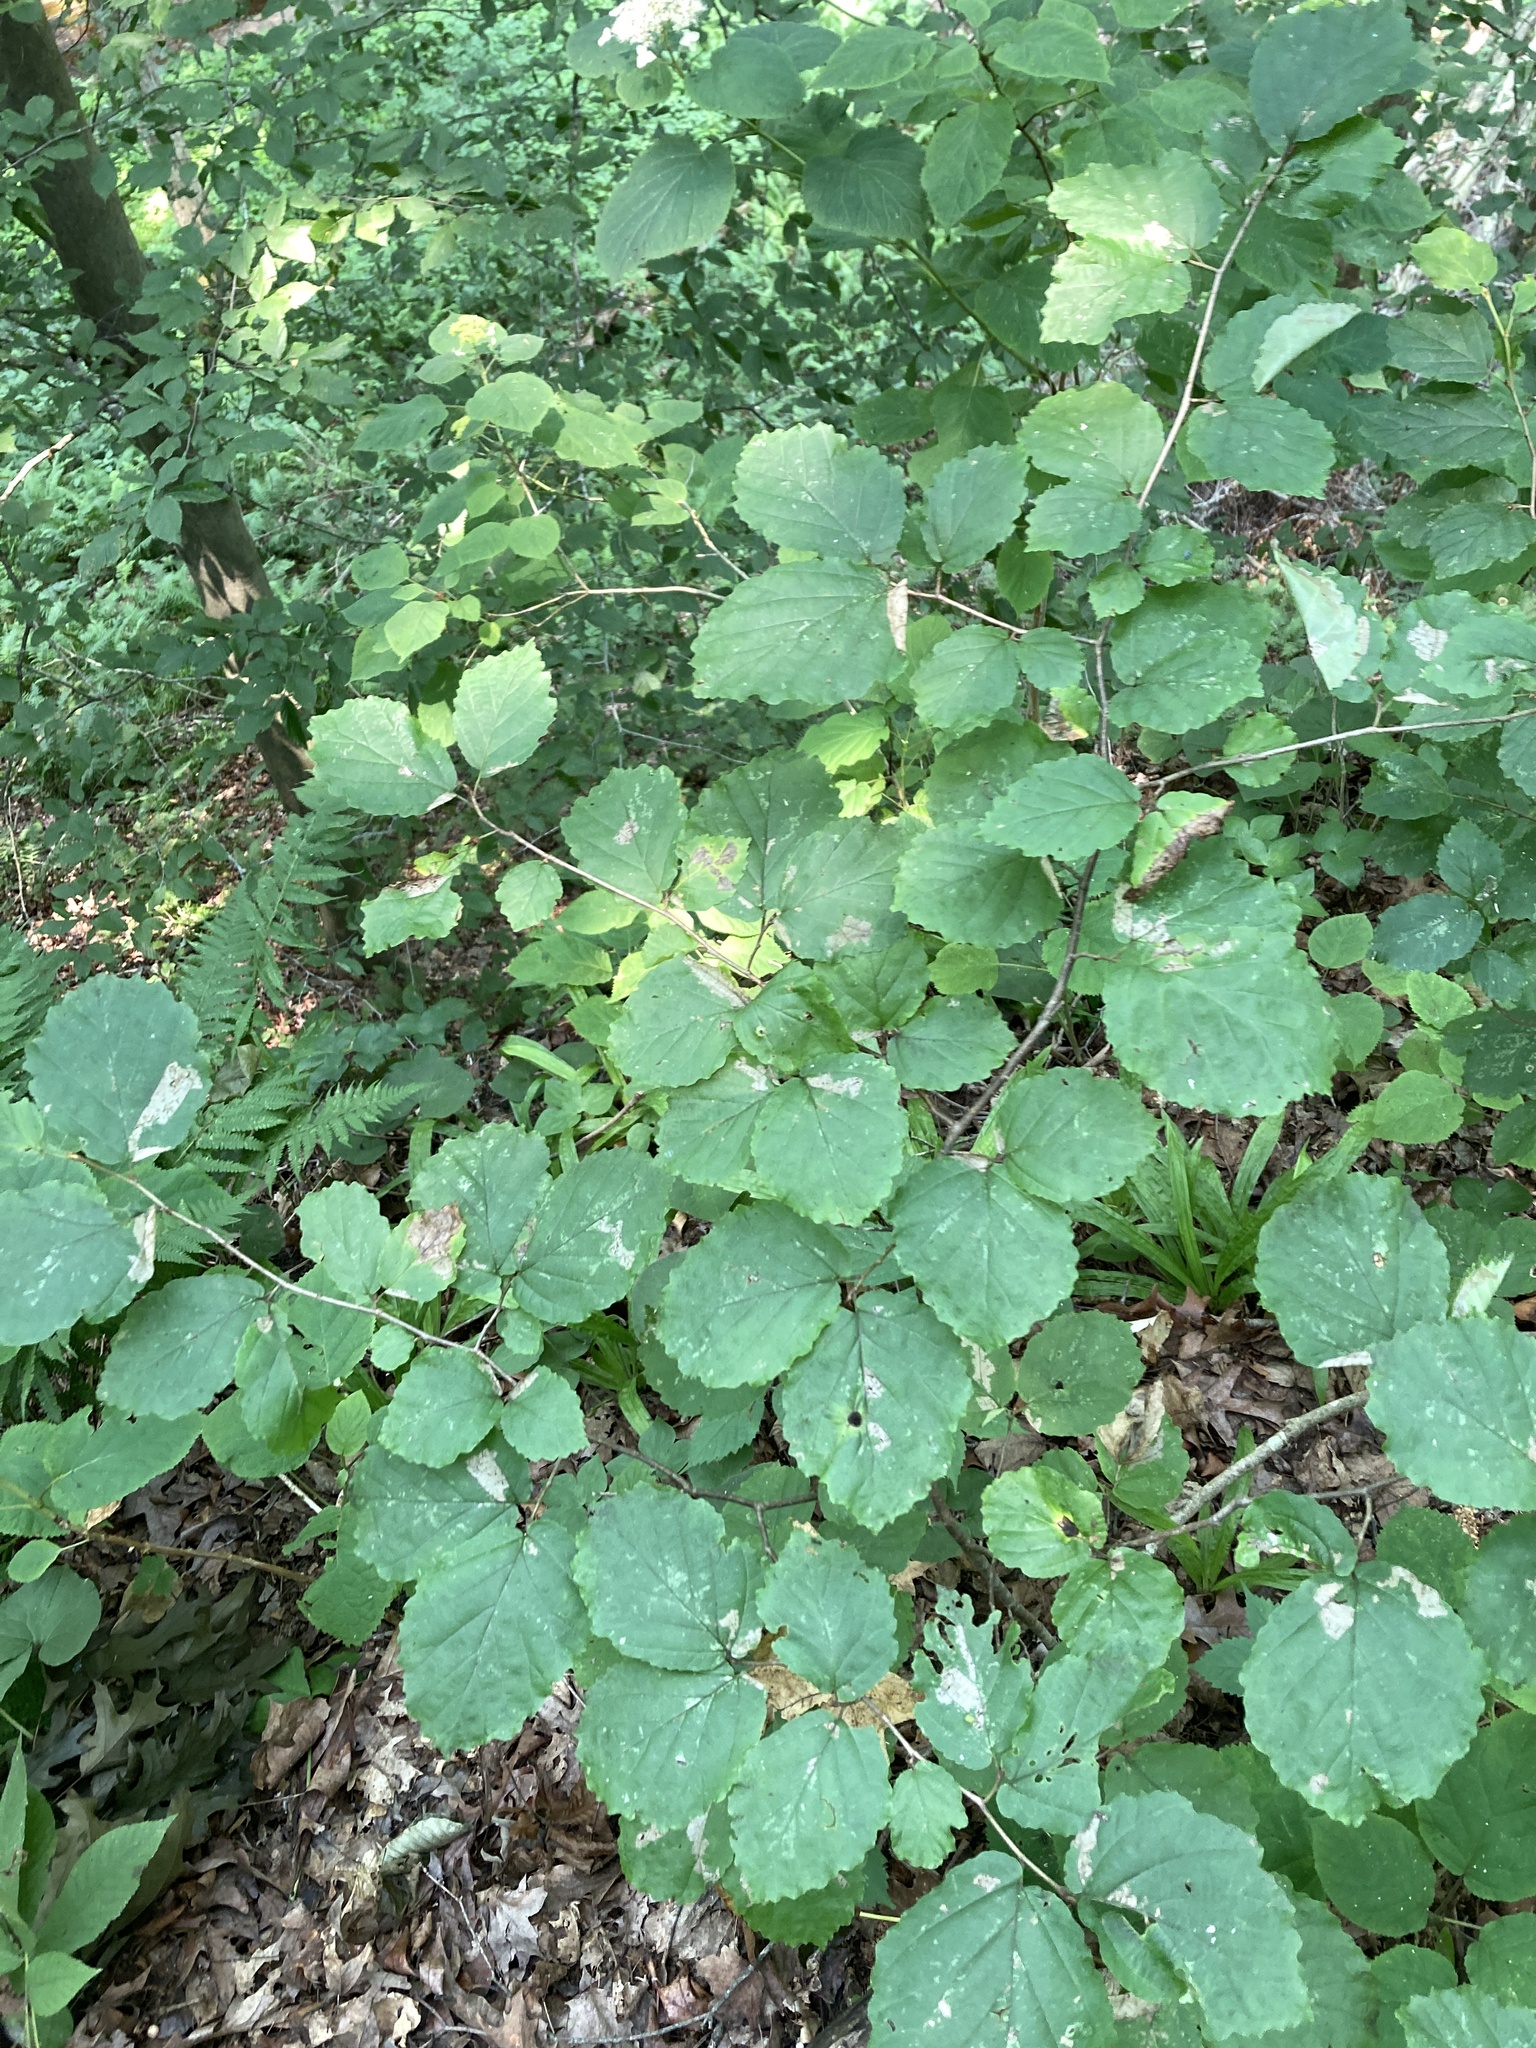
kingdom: Plantae
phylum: Tracheophyta
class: Magnoliopsida
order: Saxifragales
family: Hamamelidaceae
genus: Hamamelis
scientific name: Hamamelis virginiana
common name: Witch-hazel
